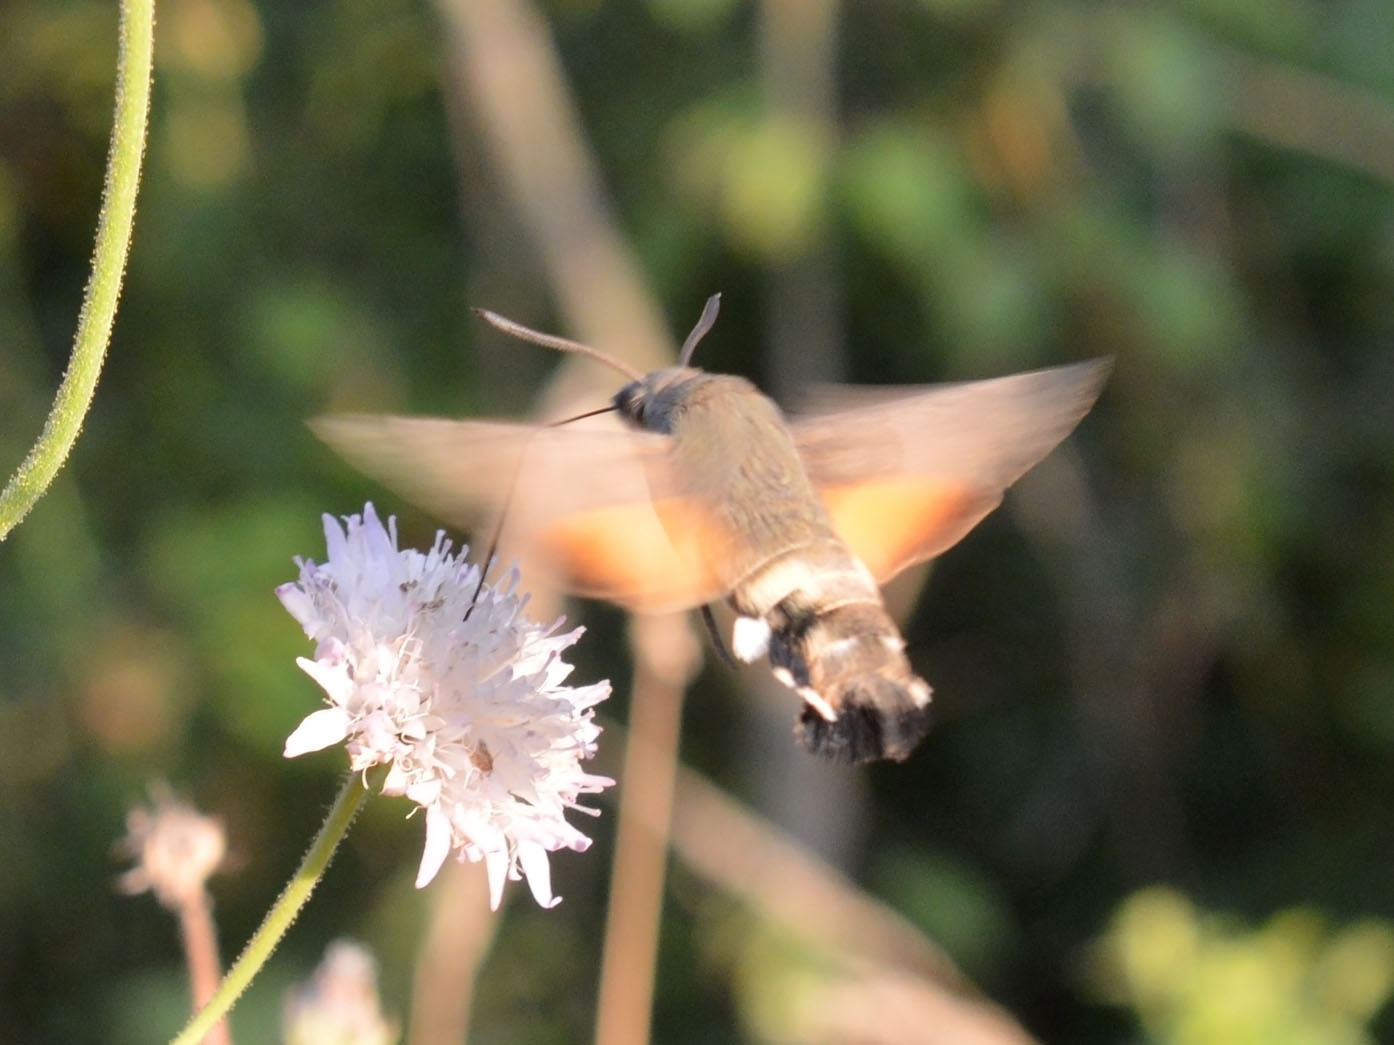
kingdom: Animalia
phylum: Arthropoda
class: Insecta
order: Lepidoptera
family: Sphingidae
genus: Macroglossum
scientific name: Macroglossum stellatarum
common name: Humming-bird hawk-moth
